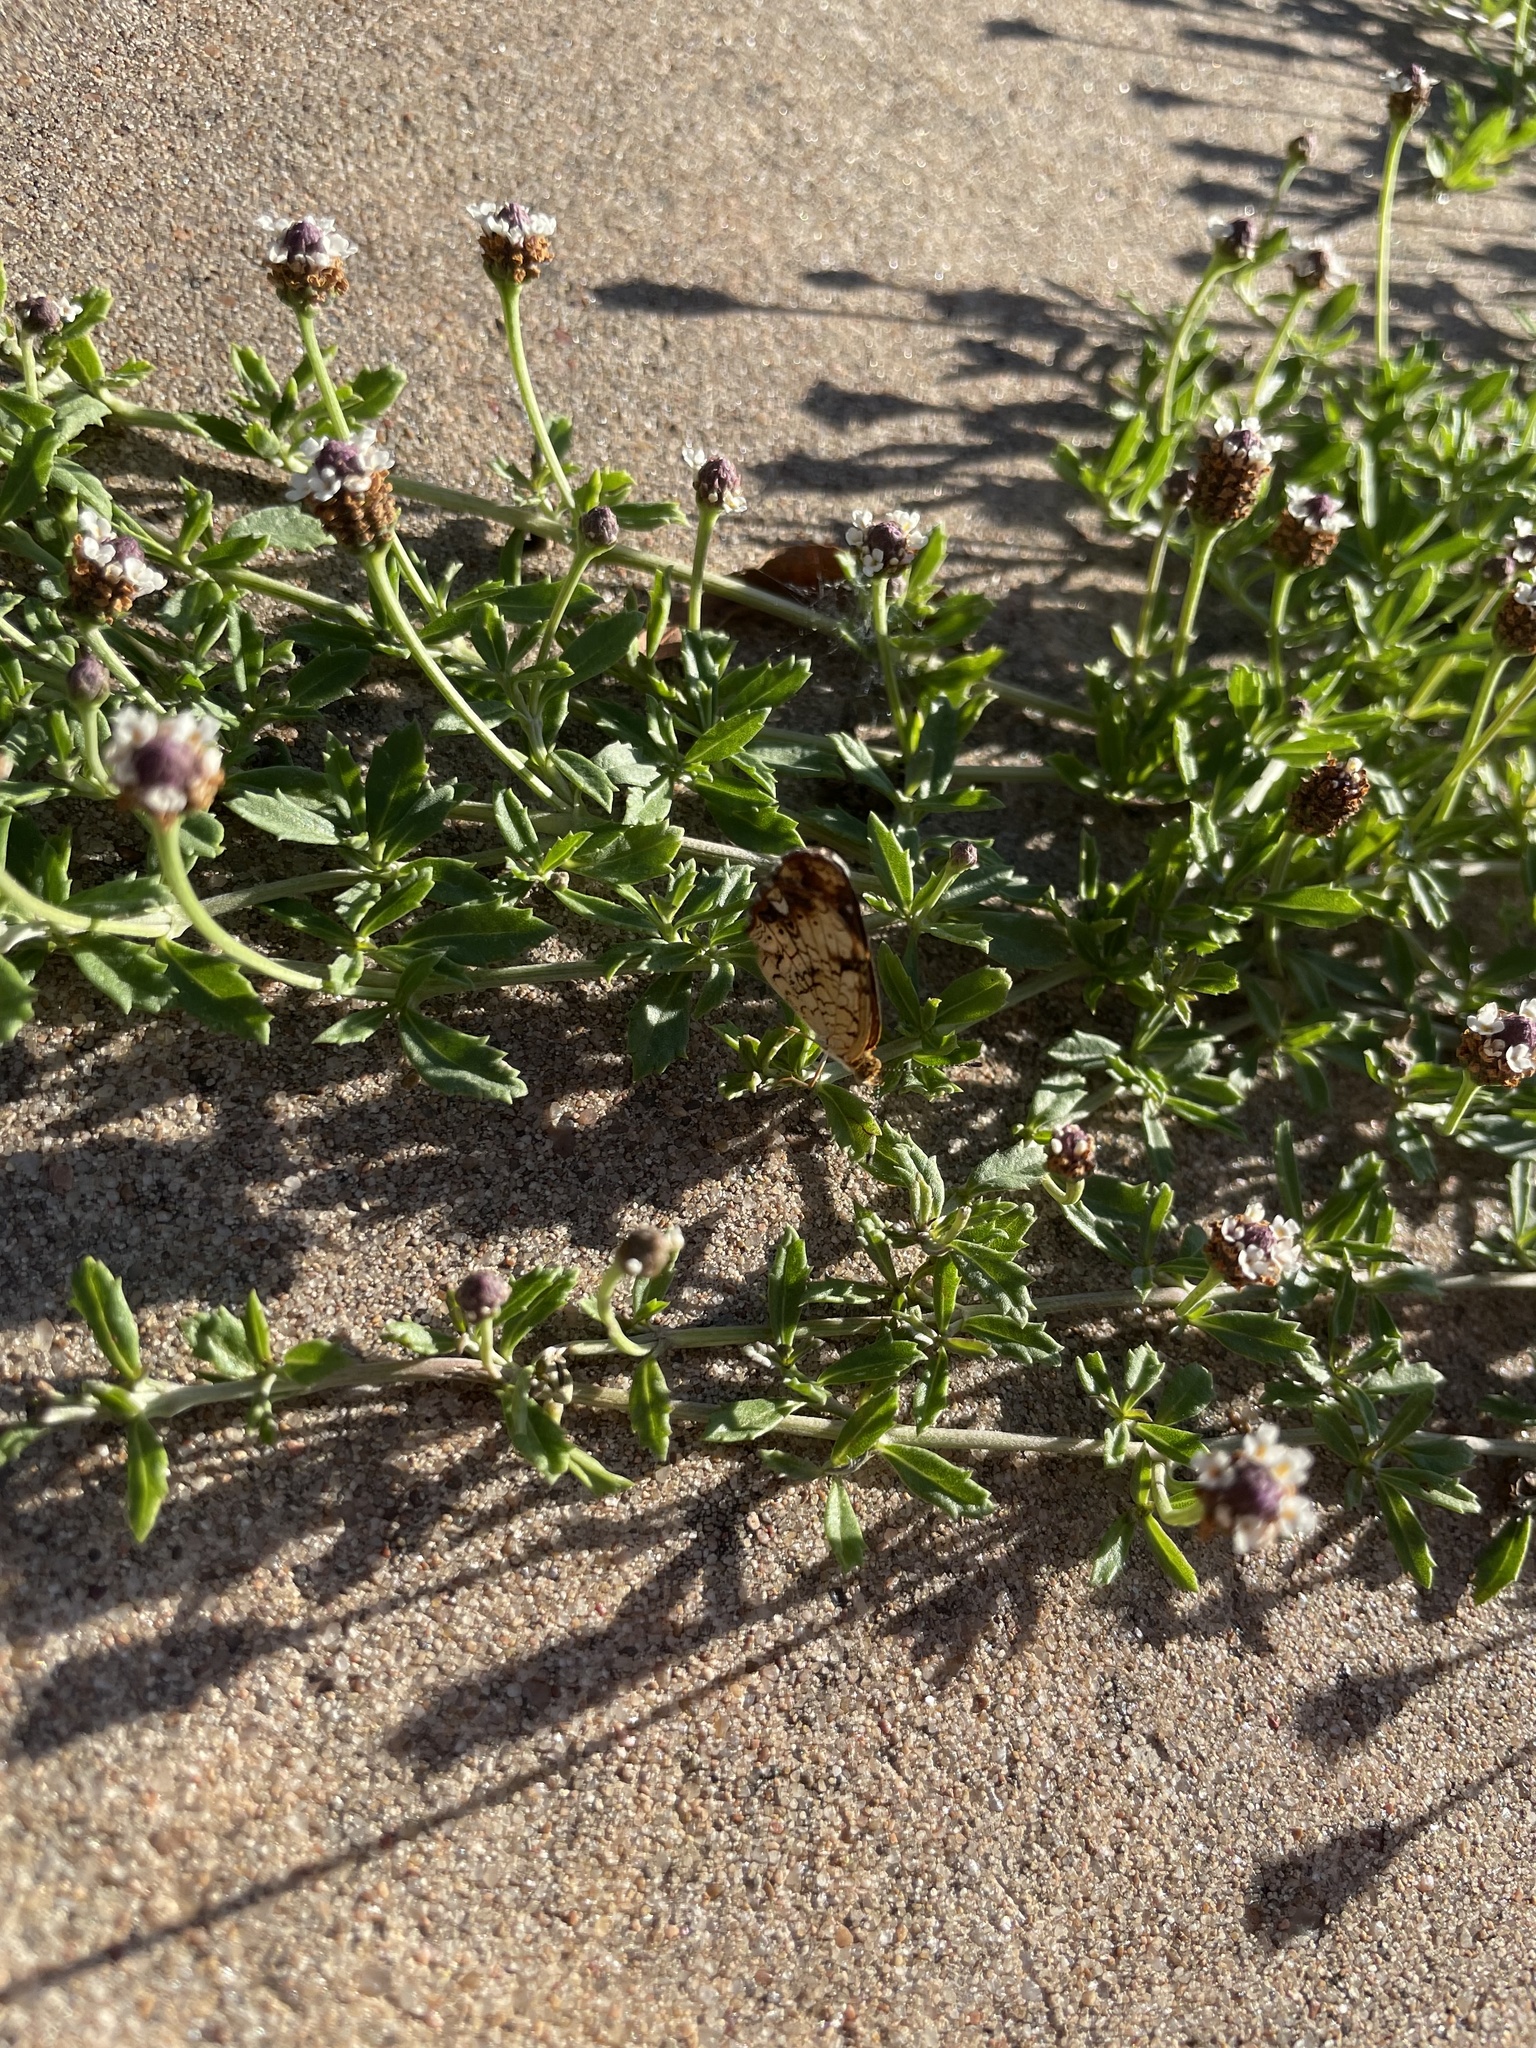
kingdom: Animalia
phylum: Arthropoda
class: Insecta
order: Lepidoptera
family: Nymphalidae
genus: Phyciodes
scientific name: Phyciodes tharos
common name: Pearl crescent
